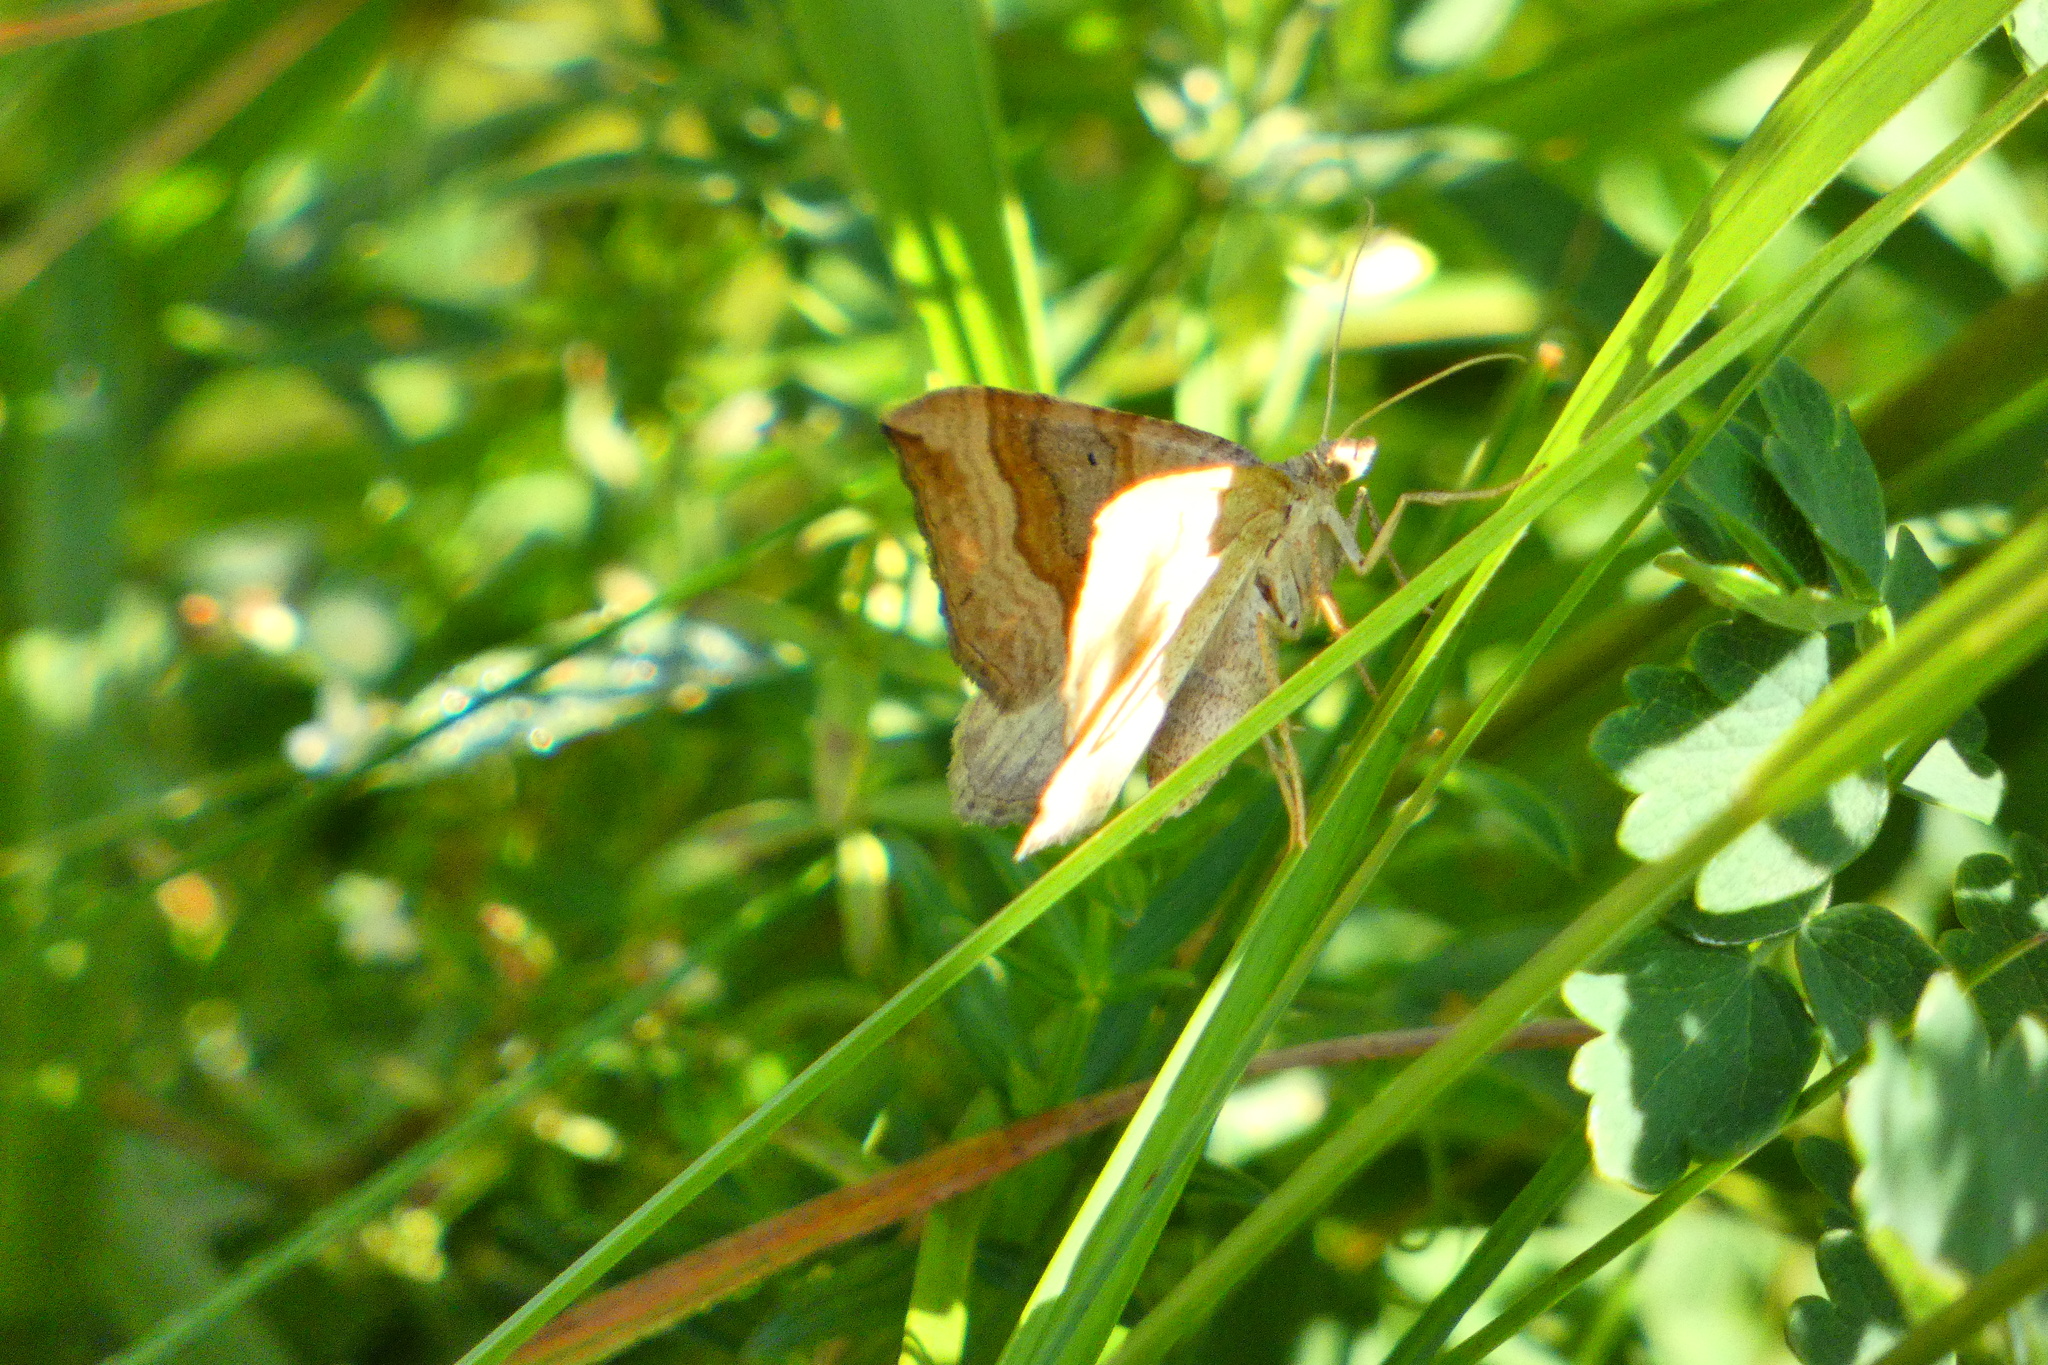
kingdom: Animalia
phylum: Arthropoda
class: Insecta
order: Lepidoptera
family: Geometridae
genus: Scotopteryx
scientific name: Scotopteryx chenopodiata
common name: Shaded broad-bar
